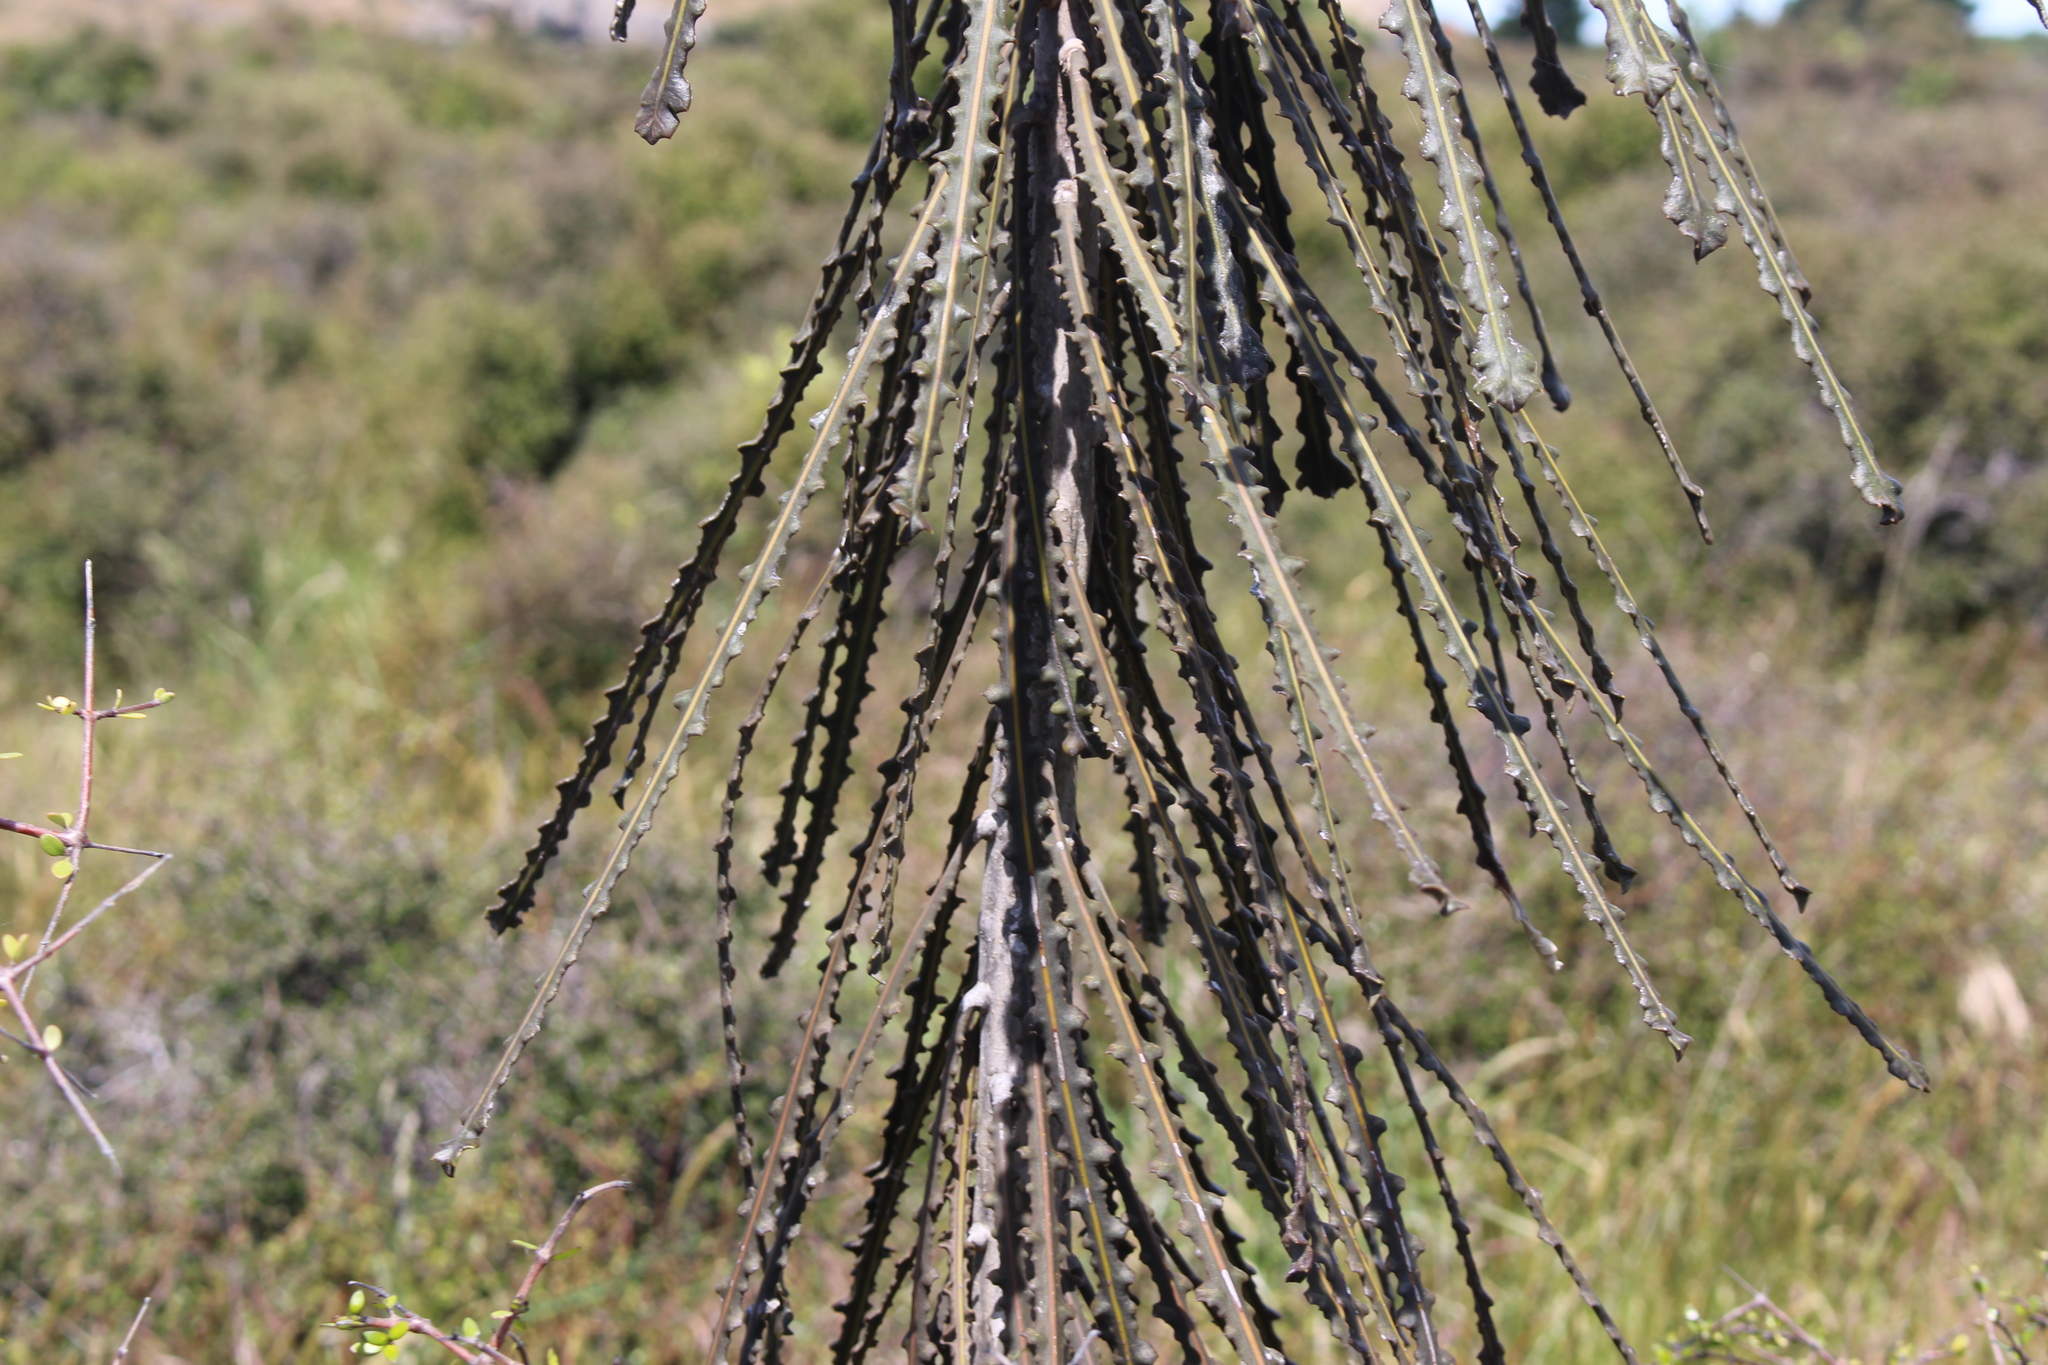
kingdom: Plantae
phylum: Tracheophyta
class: Magnoliopsida
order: Apiales
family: Araliaceae
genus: Pseudopanax
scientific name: Pseudopanax ferox
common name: Fierce lancewood
